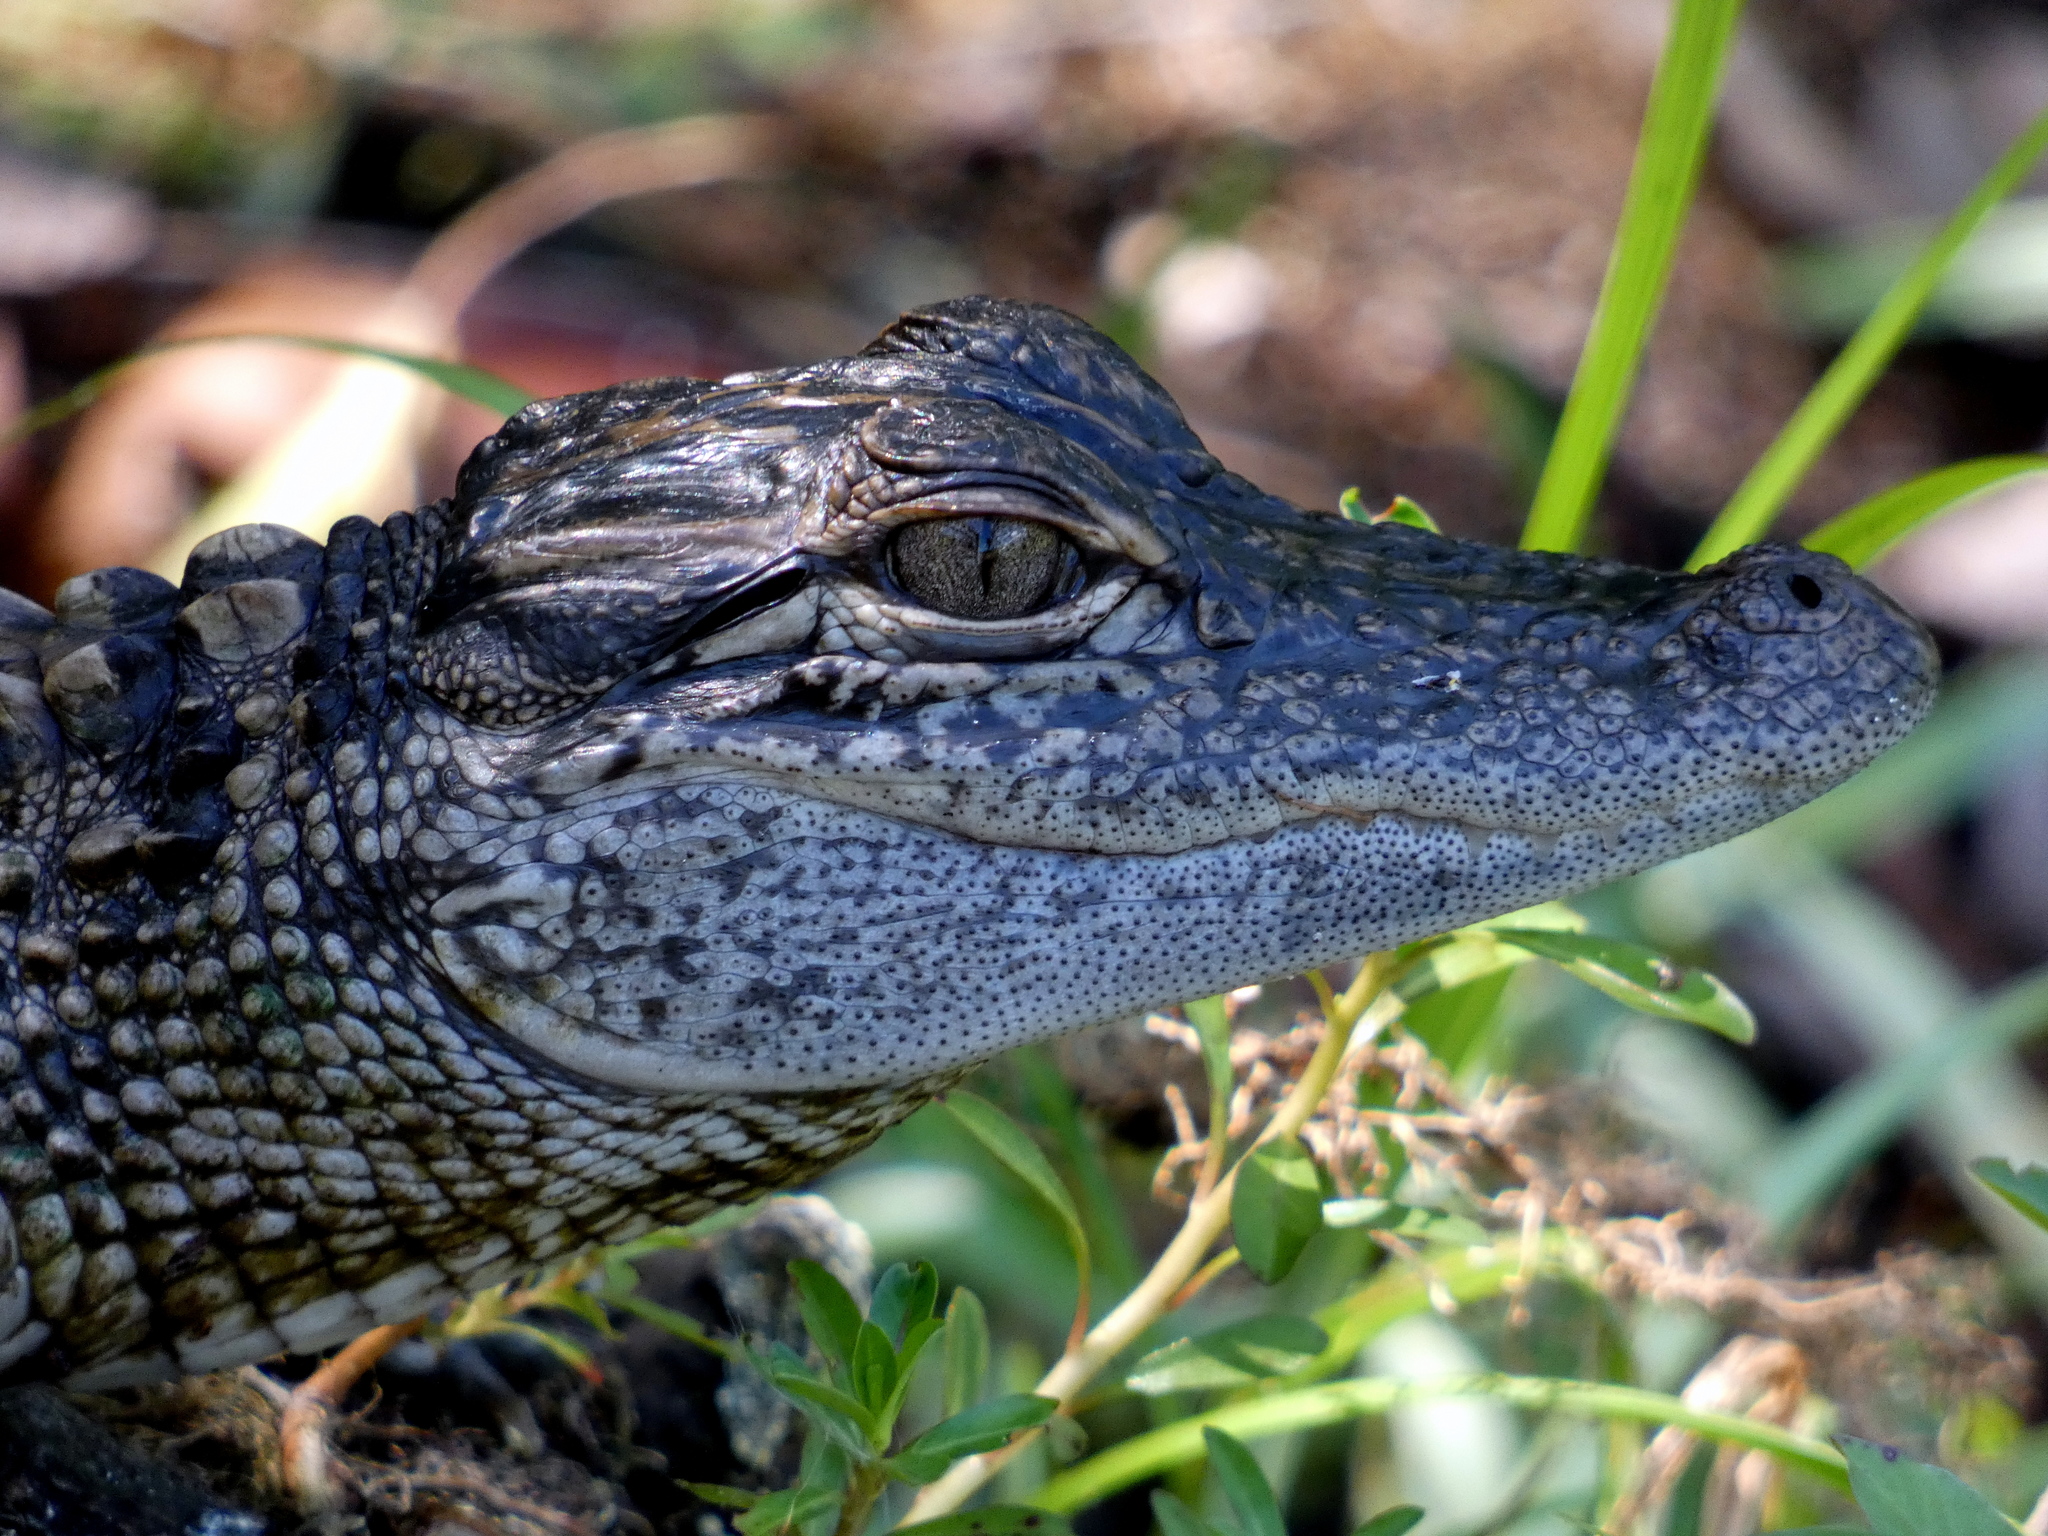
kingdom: Animalia
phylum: Chordata
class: Crocodylia
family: Alligatoridae
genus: Alligator
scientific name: Alligator mississippiensis
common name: American alligator
